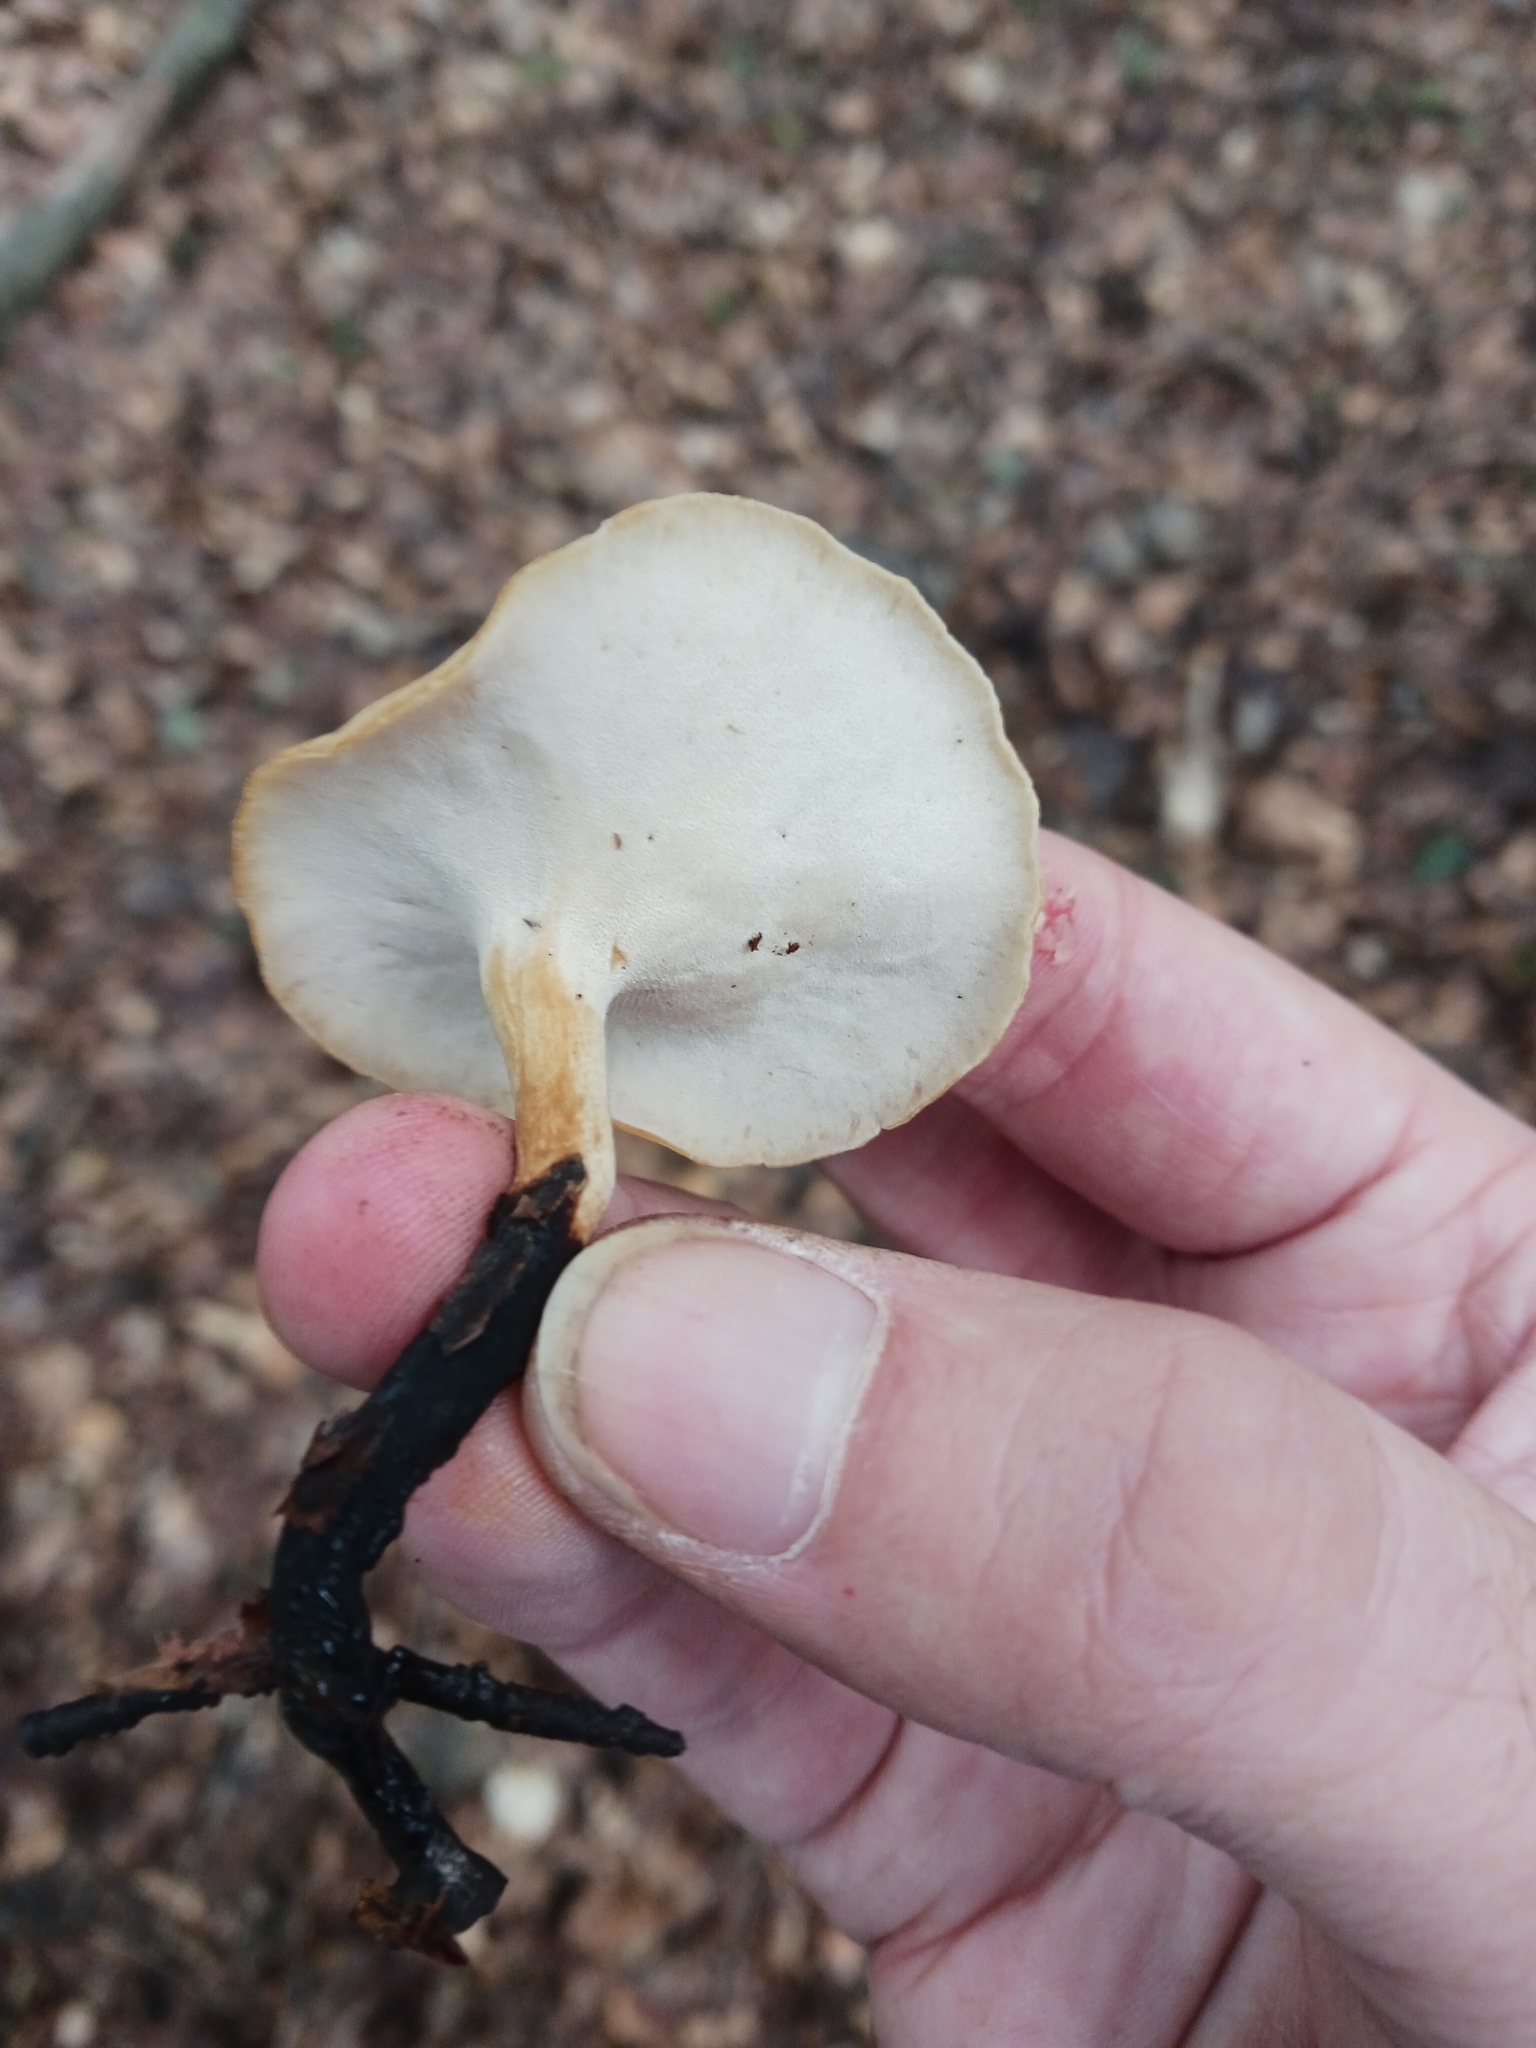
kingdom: Fungi
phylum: Basidiomycota
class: Agaricomycetes
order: Polyporales
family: Polyporaceae
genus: Cerioporus
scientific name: Cerioporus varius
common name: Elegant polypore
